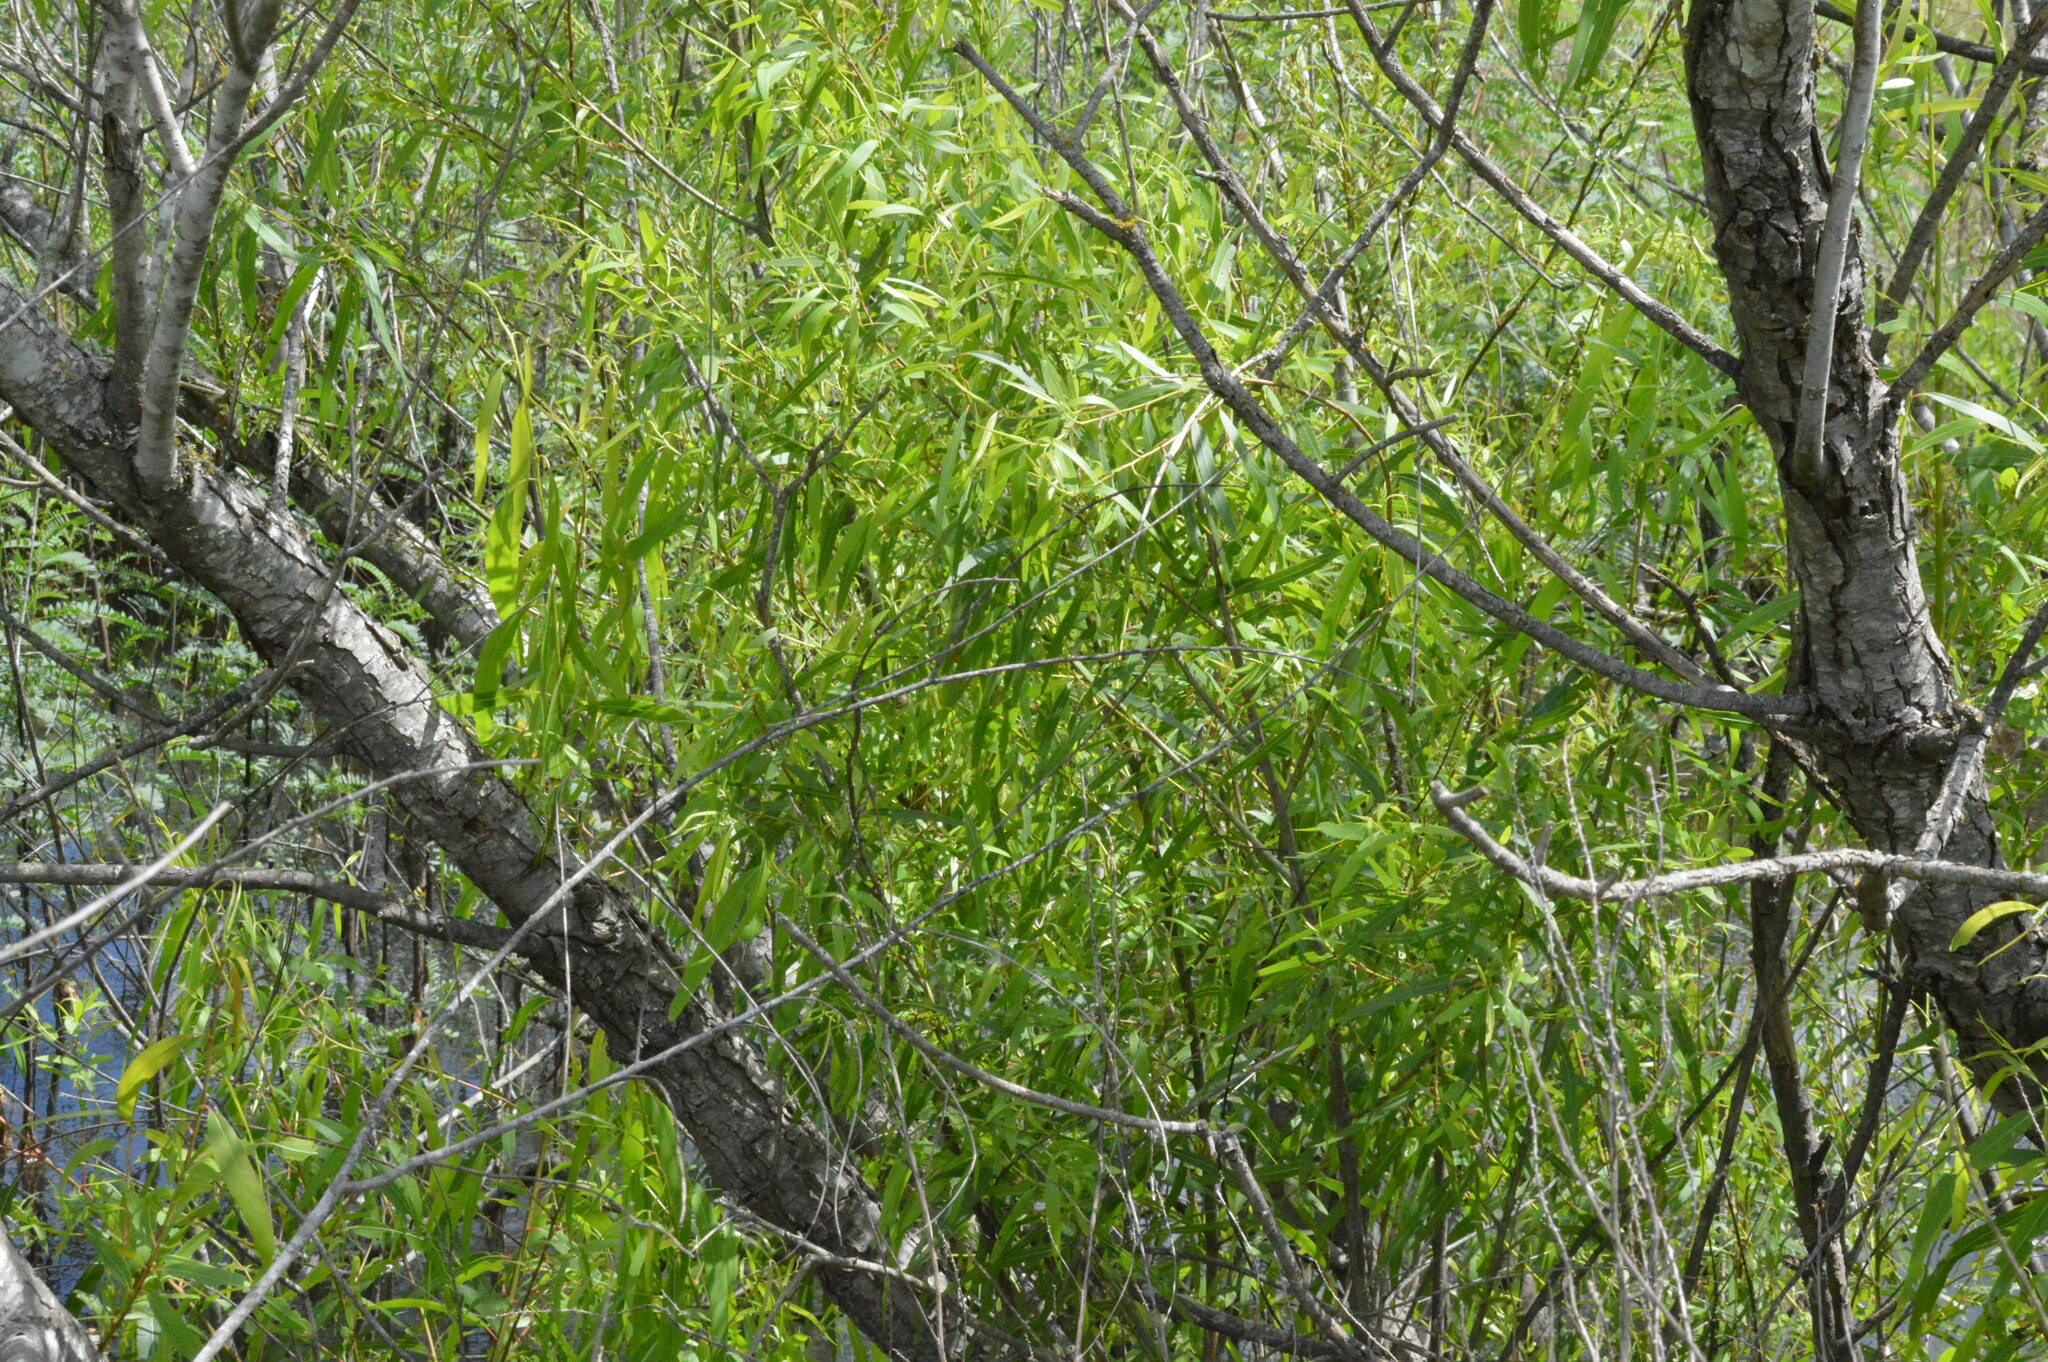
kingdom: Plantae
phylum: Tracheophyta
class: Magnoliopsida
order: Malpighiales
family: Salicaceae
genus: Salix
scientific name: Salix nigra
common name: Black willow
